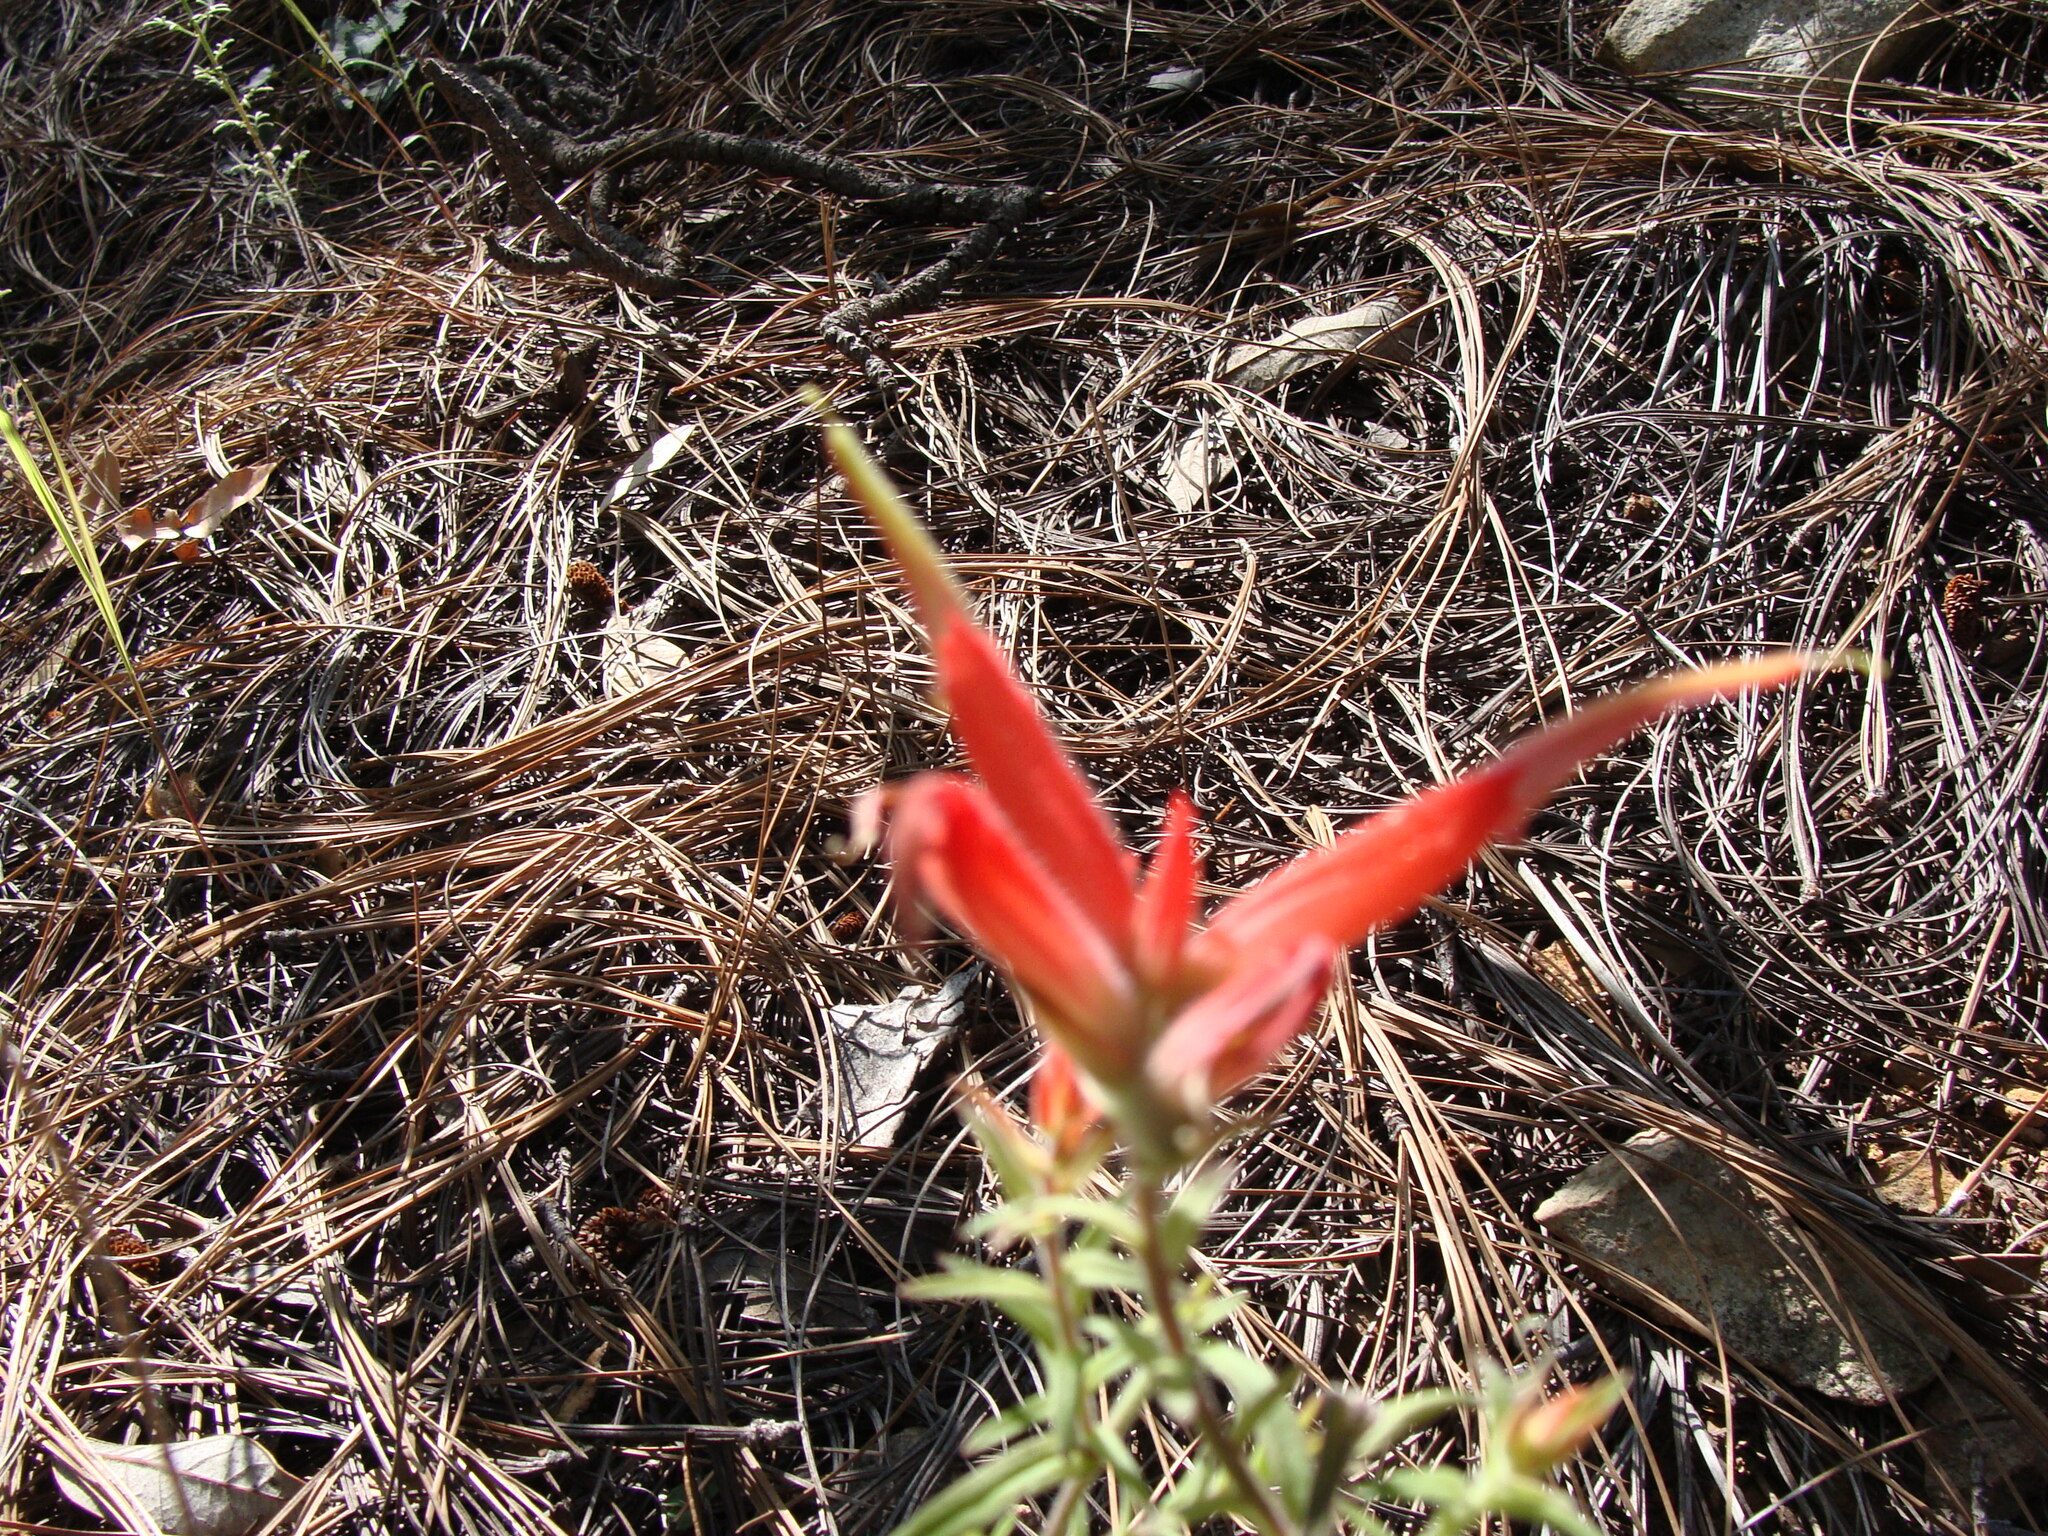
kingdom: Plantae
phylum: Tracheophyta
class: Magnoliopsida
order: Lamiales
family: Orobanchaceae
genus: Castilleja
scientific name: Castilleja tenuiflora
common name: Santa catalina indian paintbrush
